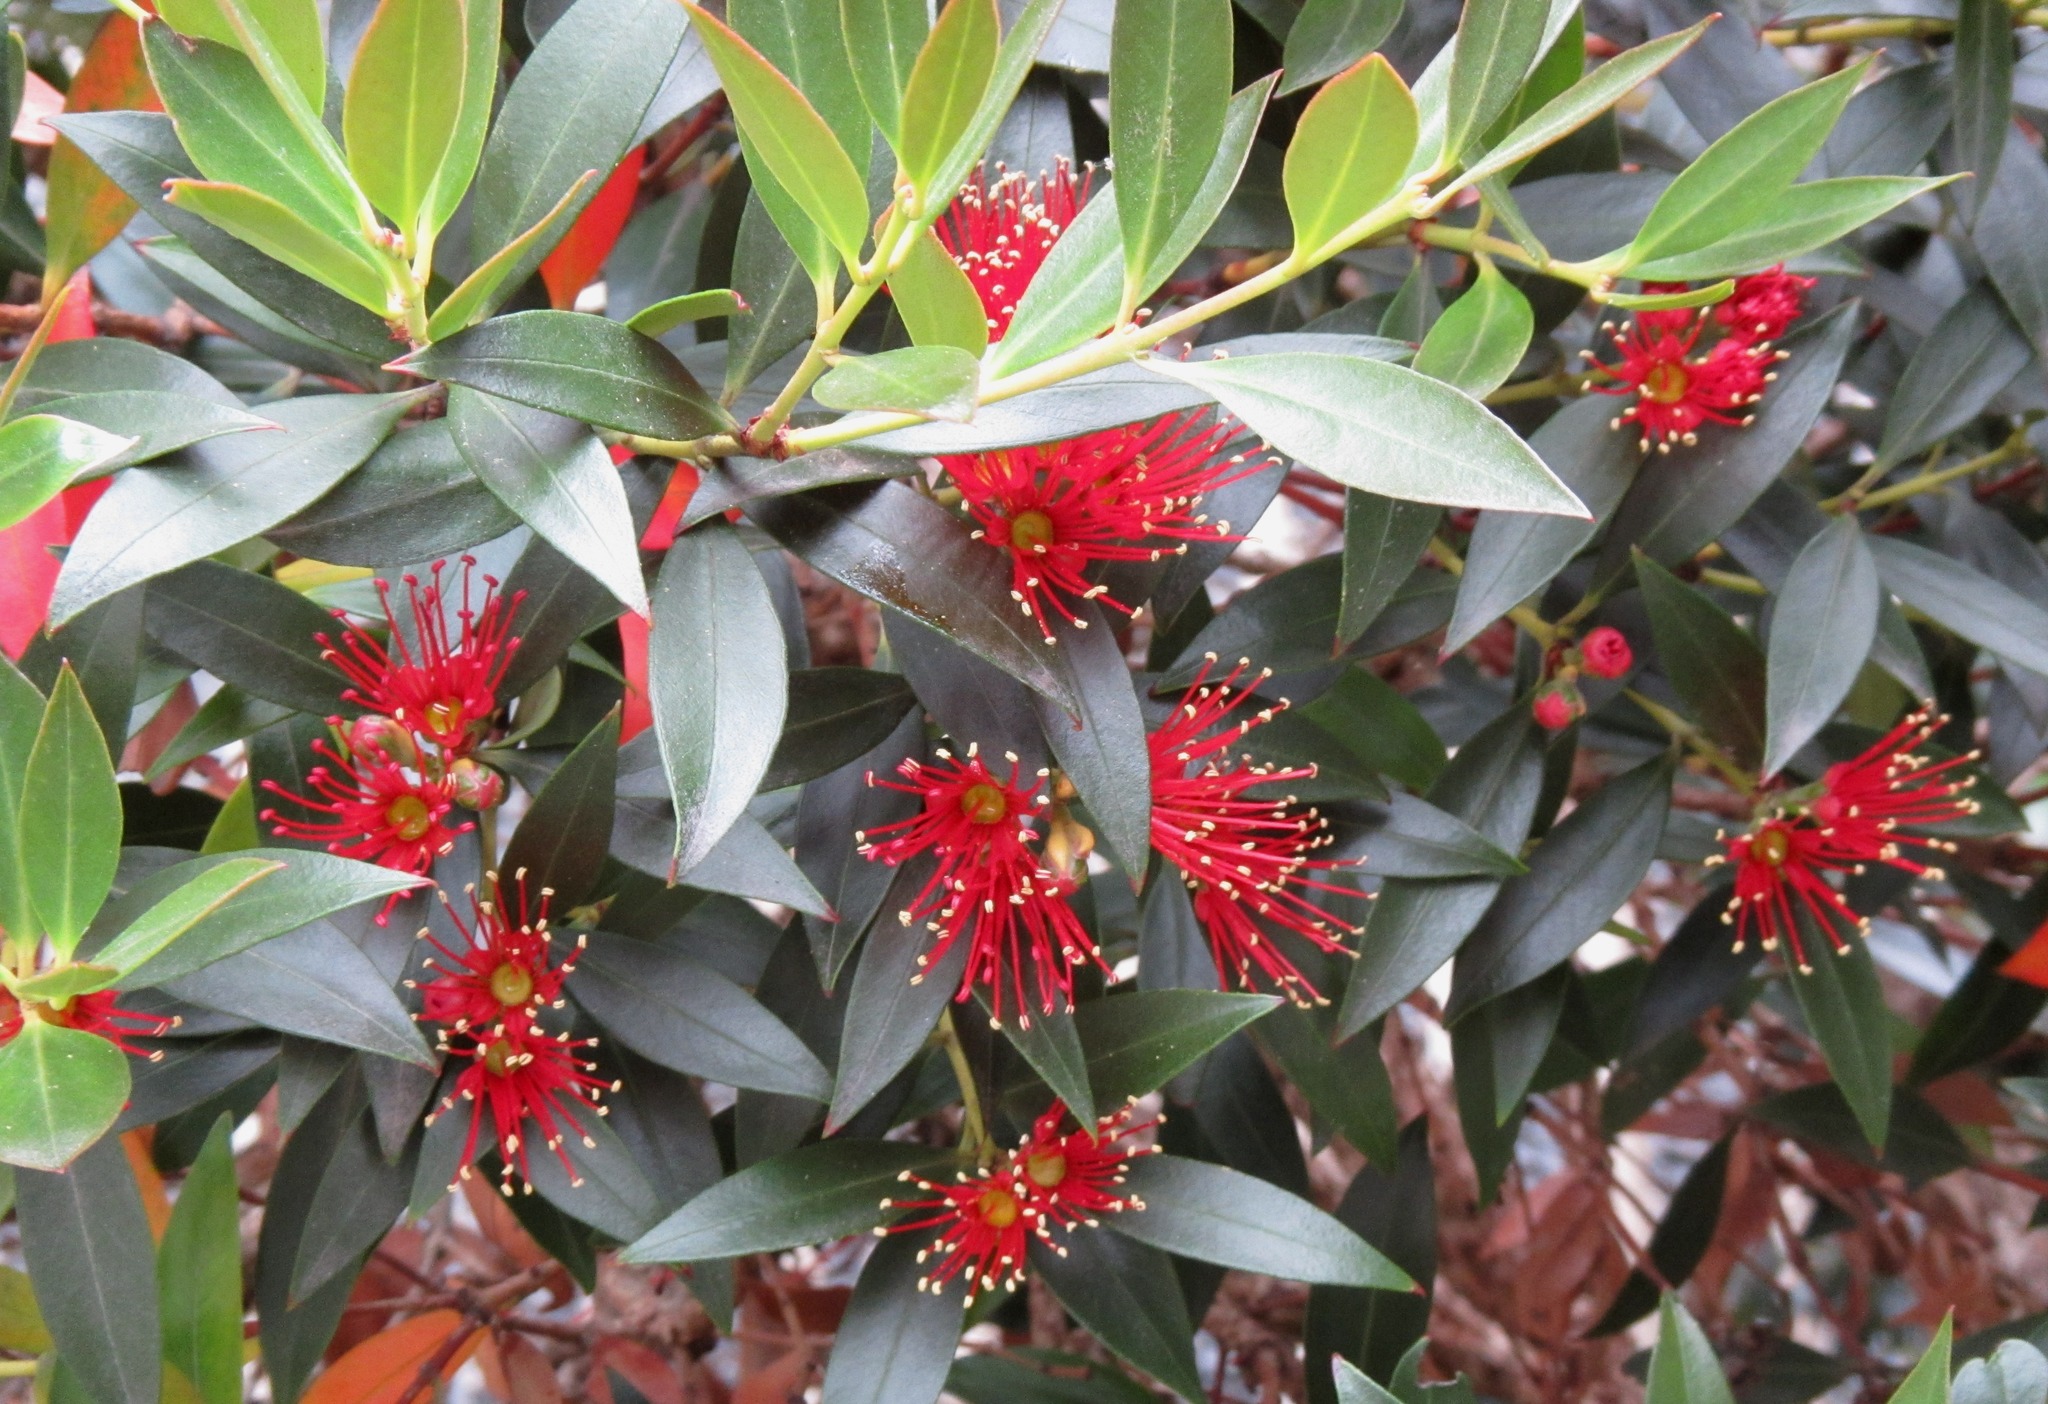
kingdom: Plantae
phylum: Tracheophyta
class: Magnoliopsida
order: Myrtales
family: Myrtaceae
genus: Metrosideros
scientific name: Metrosideros umbellata
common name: Southern rata
